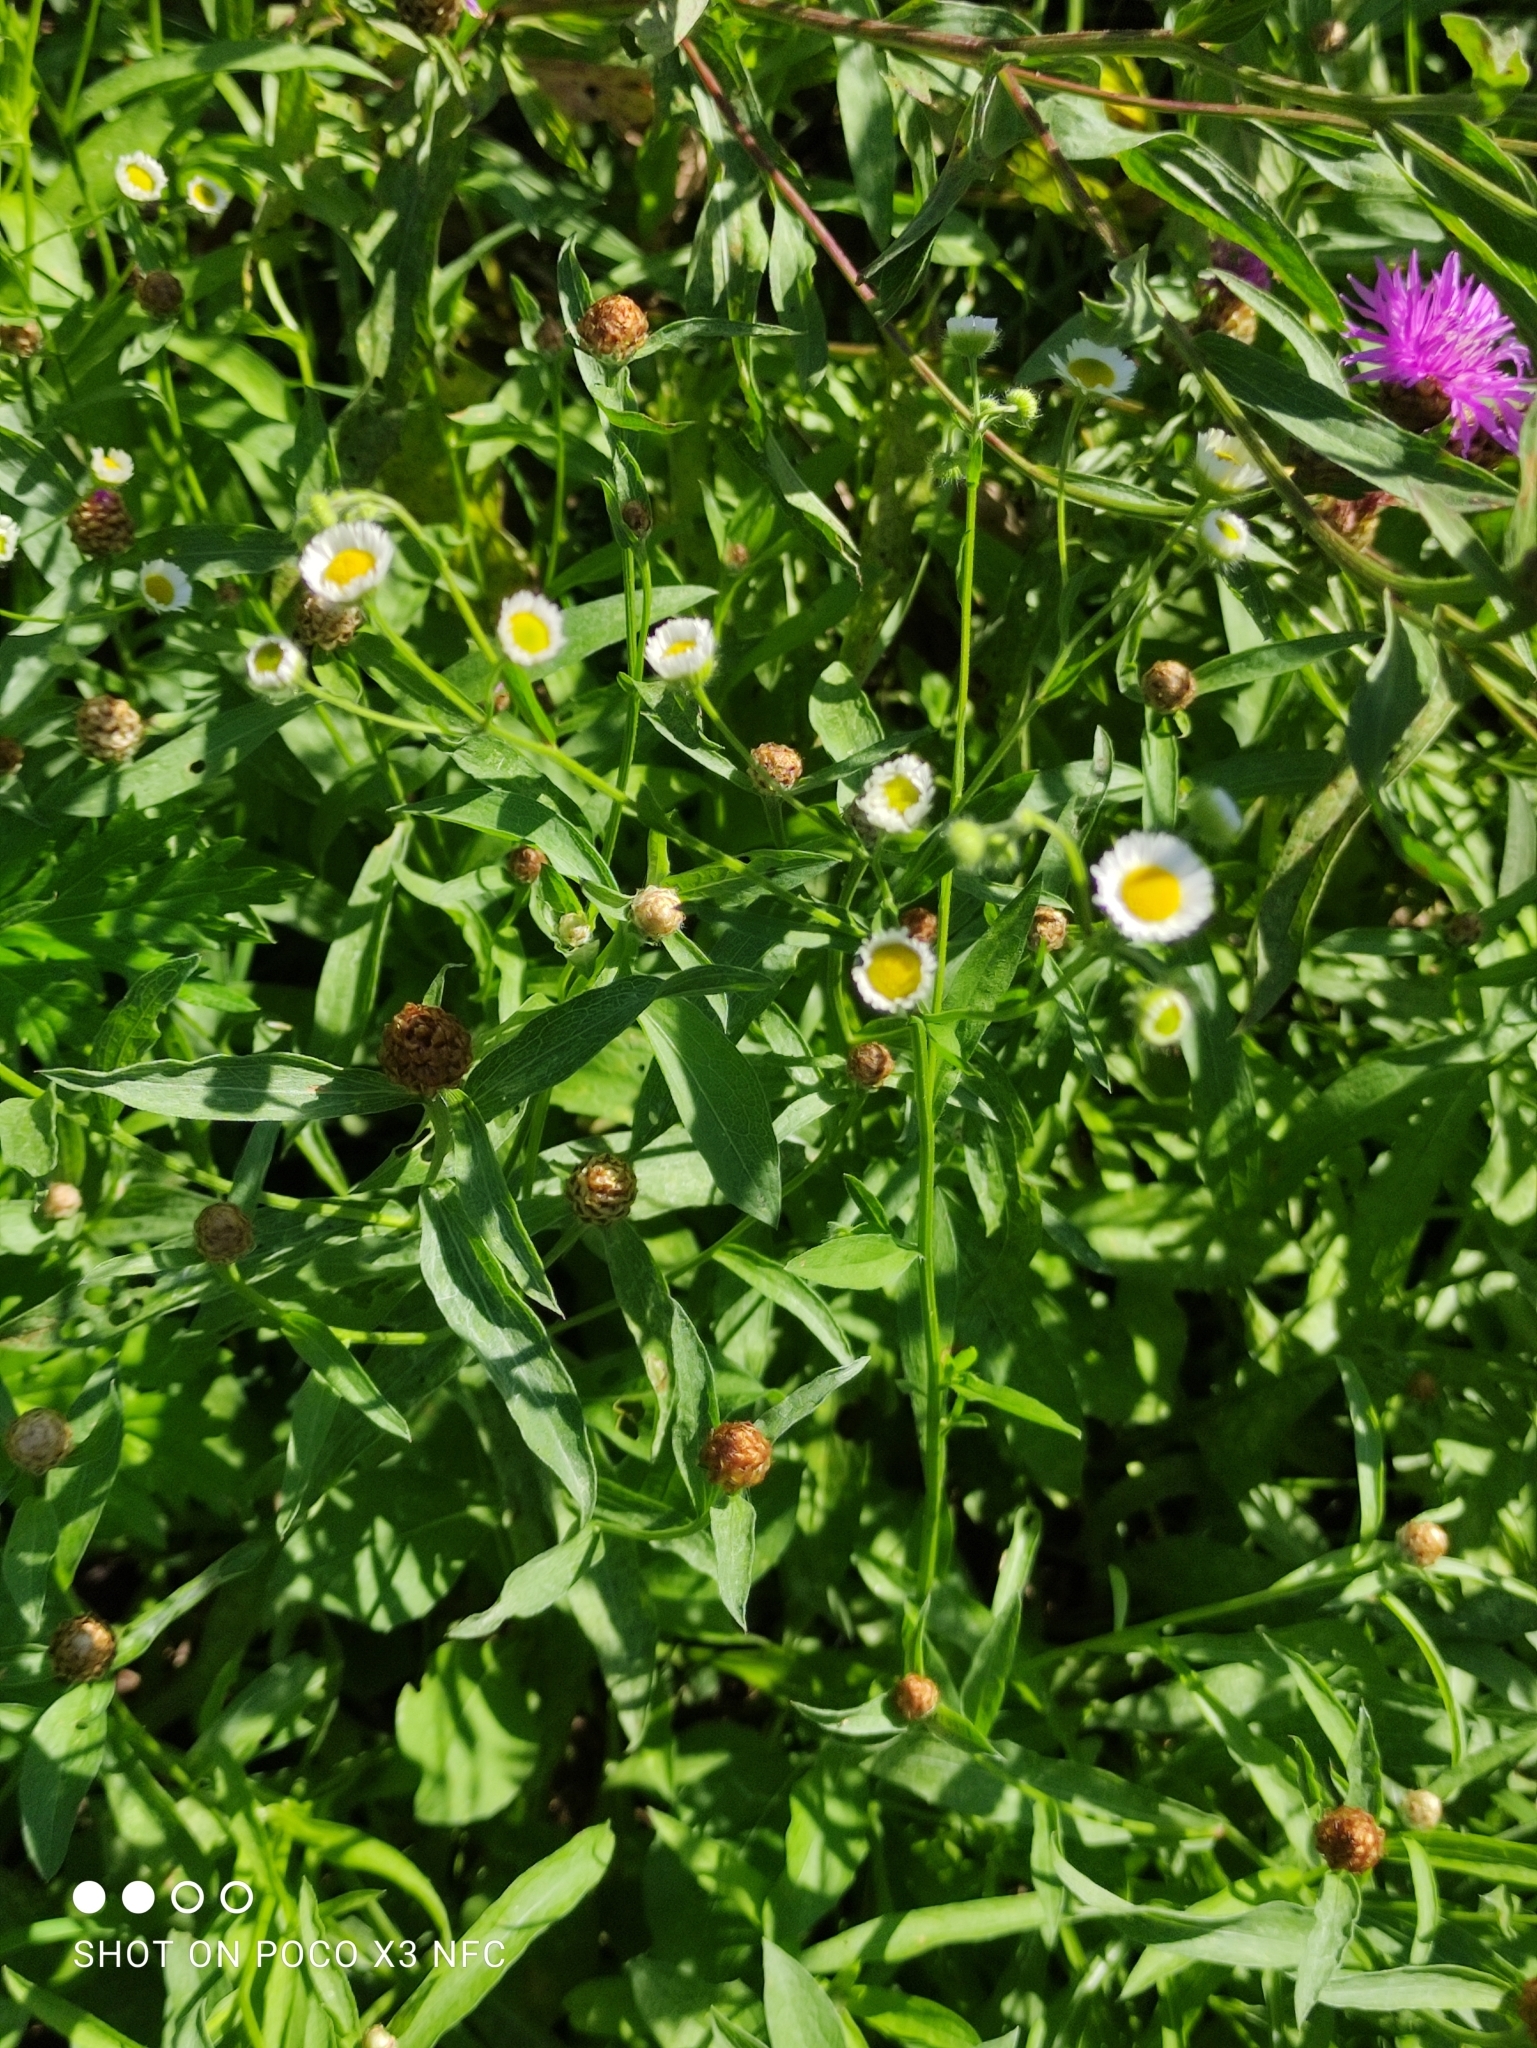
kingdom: Plantae
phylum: Tracheophyta
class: Magnoliopsida
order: Asterales
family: Asteraceae
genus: Erigeron
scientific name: Erigeron annuus
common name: Tall fleabane
